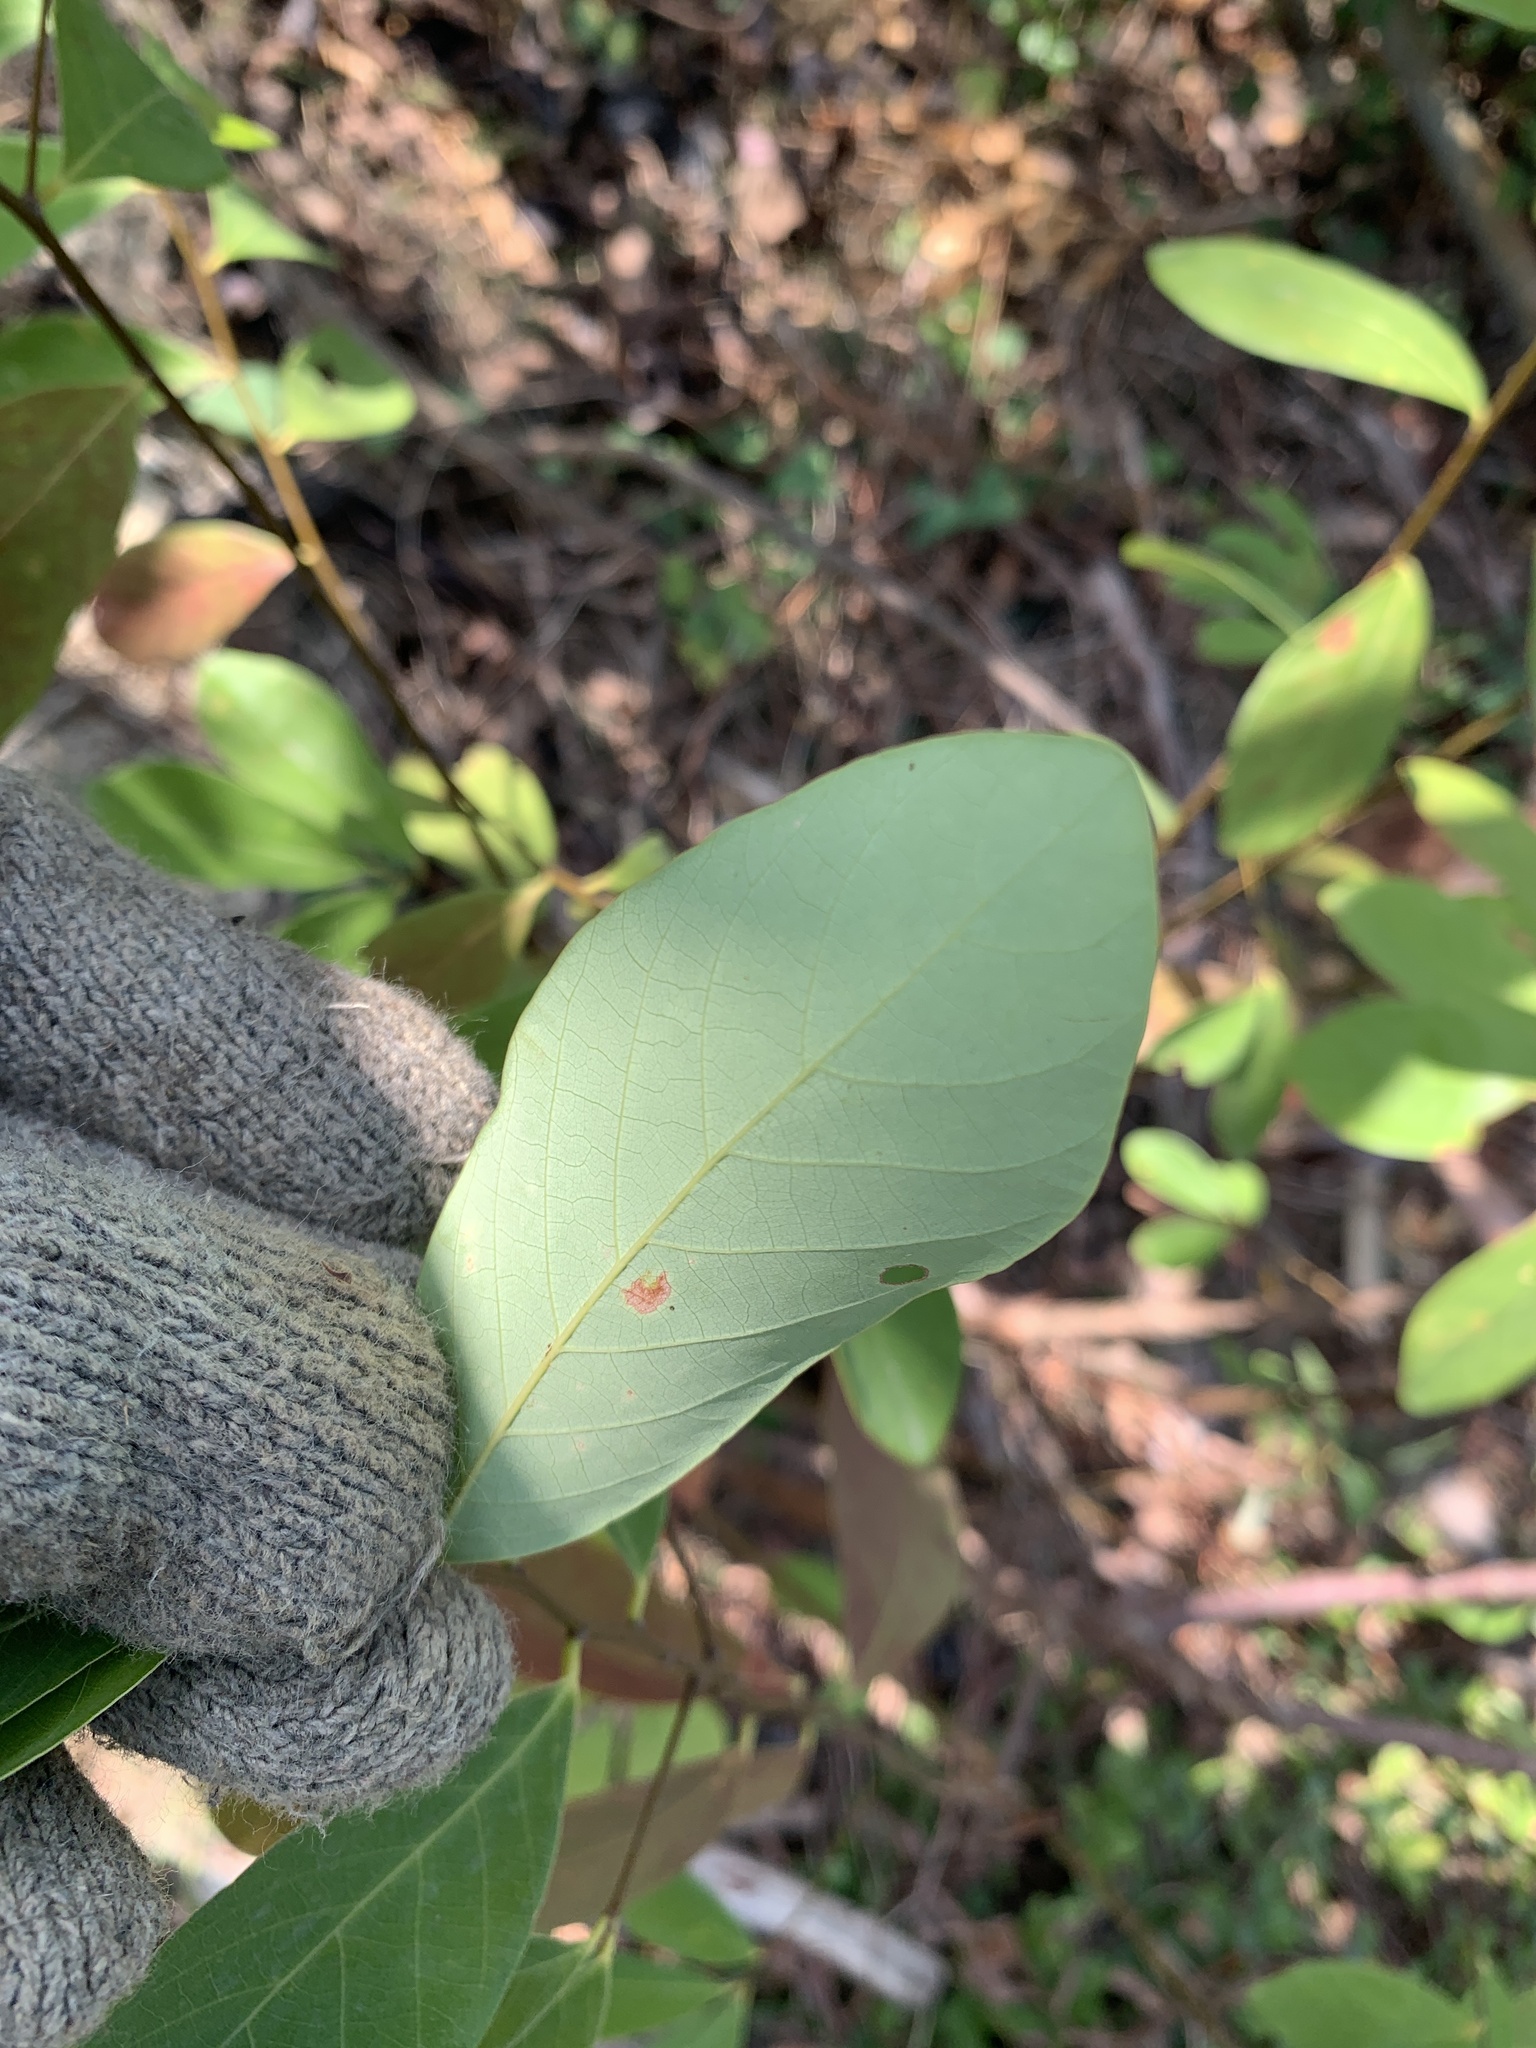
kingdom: Plantae
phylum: Tracheophyta
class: Magnoliopsida
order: Malpighiales
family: Phyllanthaceae
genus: Bridelia
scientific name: Bridelia tomentosa
